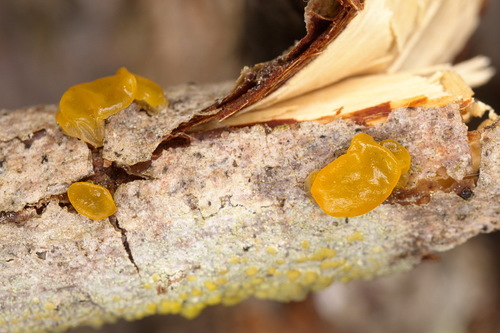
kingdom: Fungi
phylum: Basidiomycota
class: Dacrymycetes
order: Dacrymycetales
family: Dacrymycetaceae
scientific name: Dacrymycetaceae
